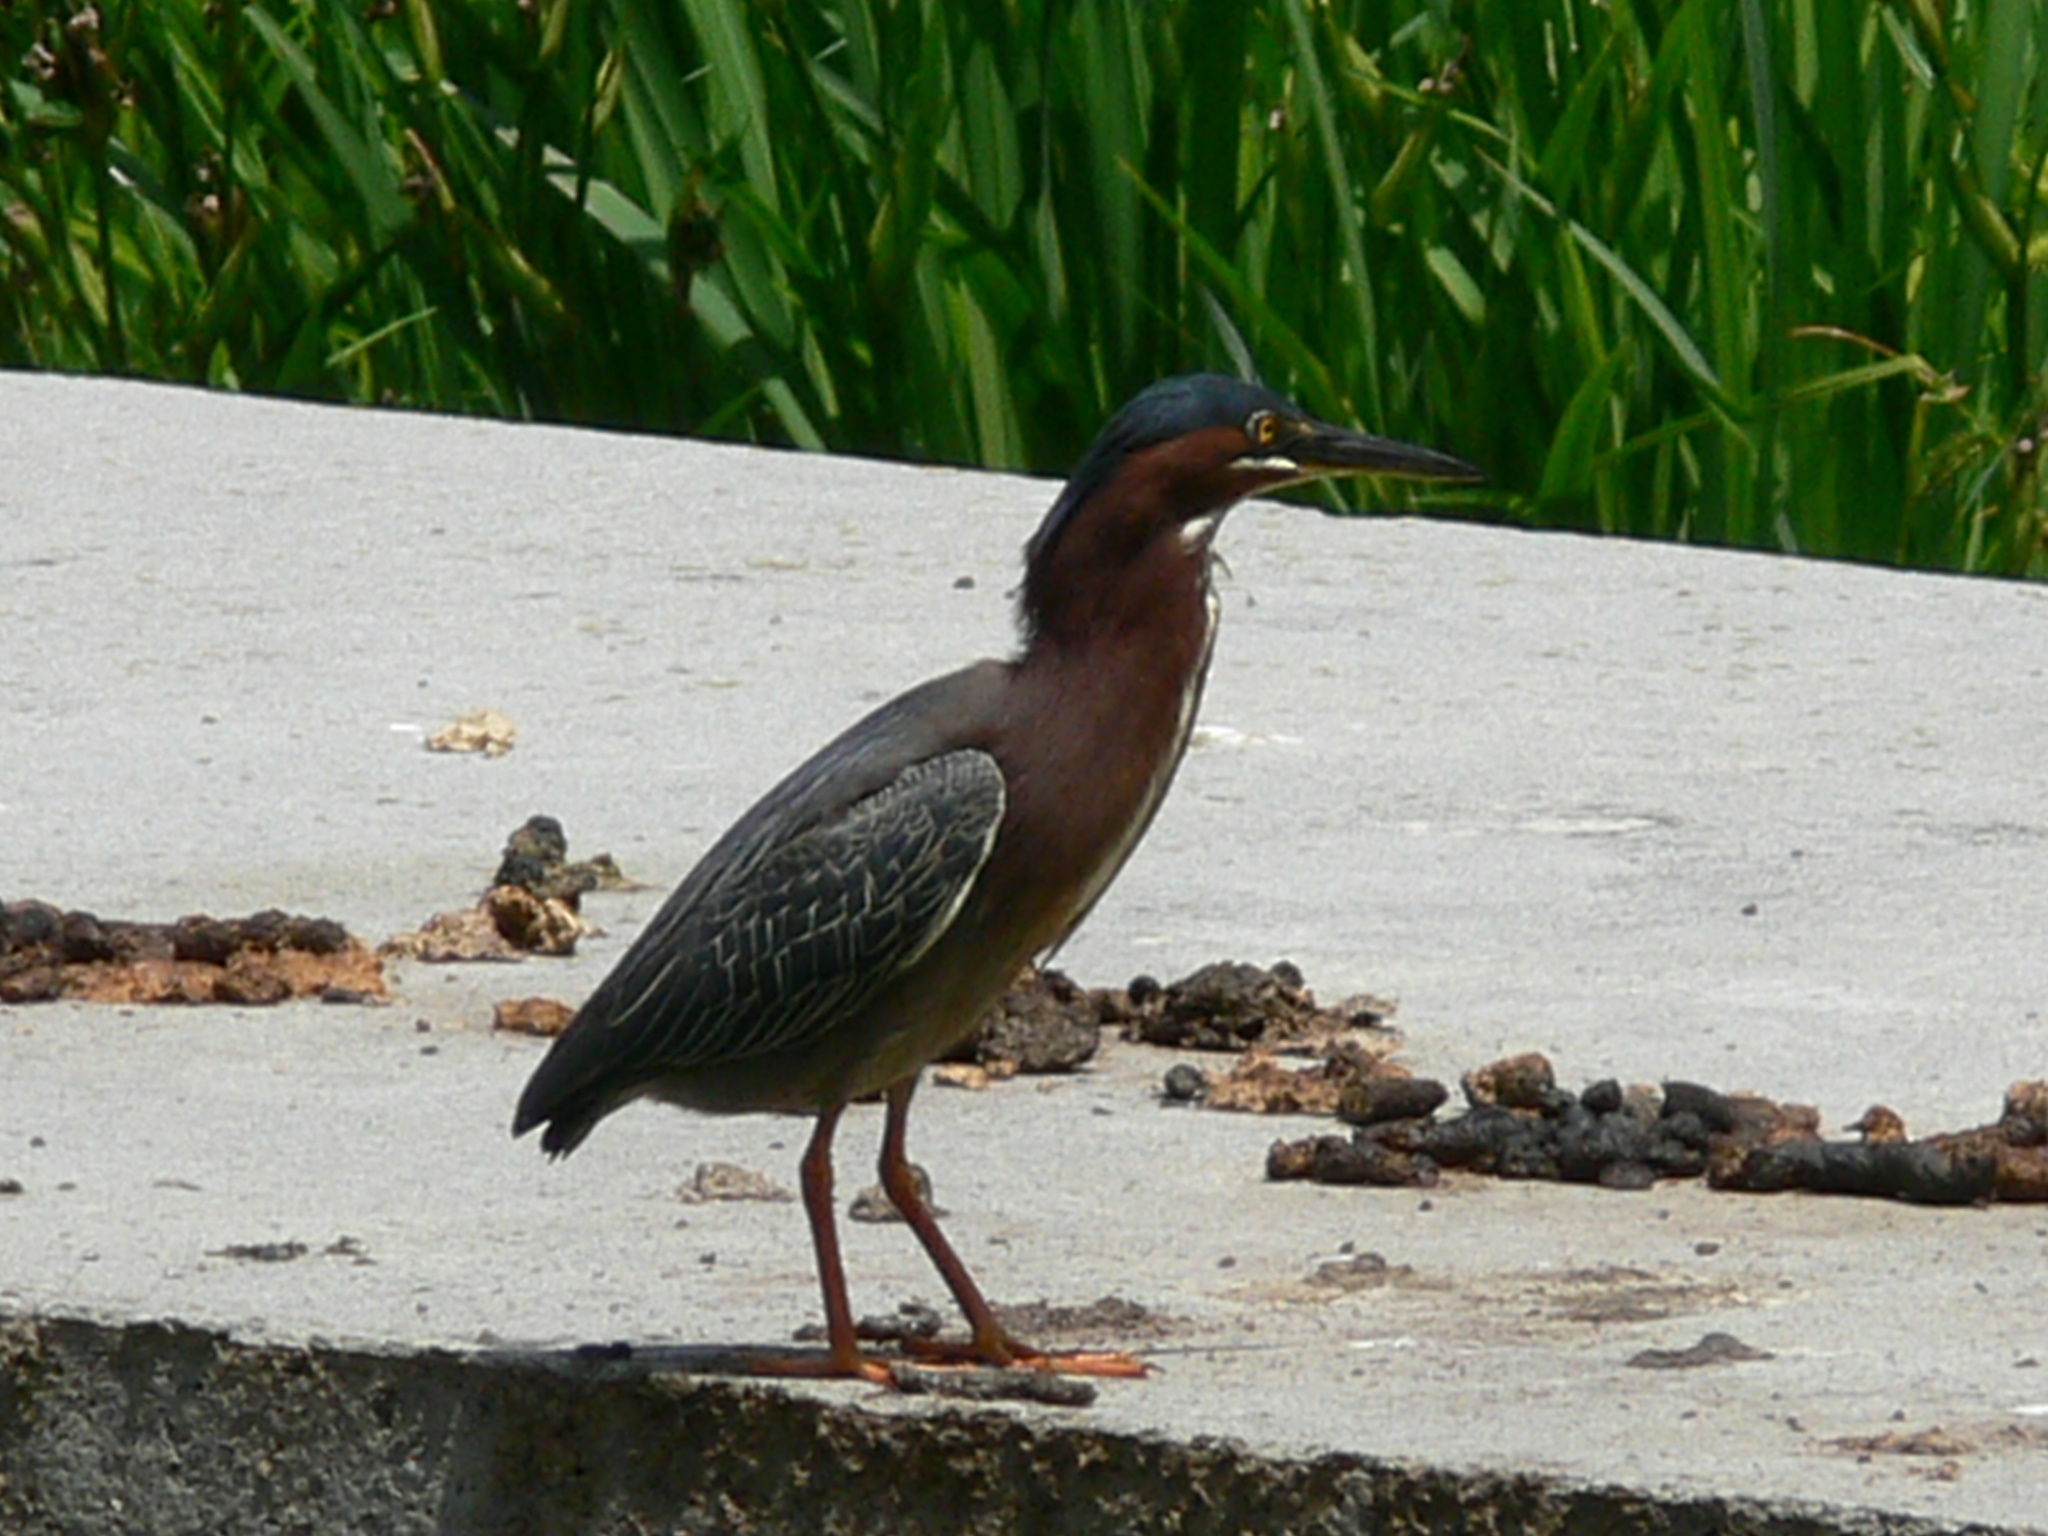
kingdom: Animalia
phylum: Chordata
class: Aves
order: Pelecaniformes
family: Ardeidae
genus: Butorides
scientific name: Butorides virescens
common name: Green heron
